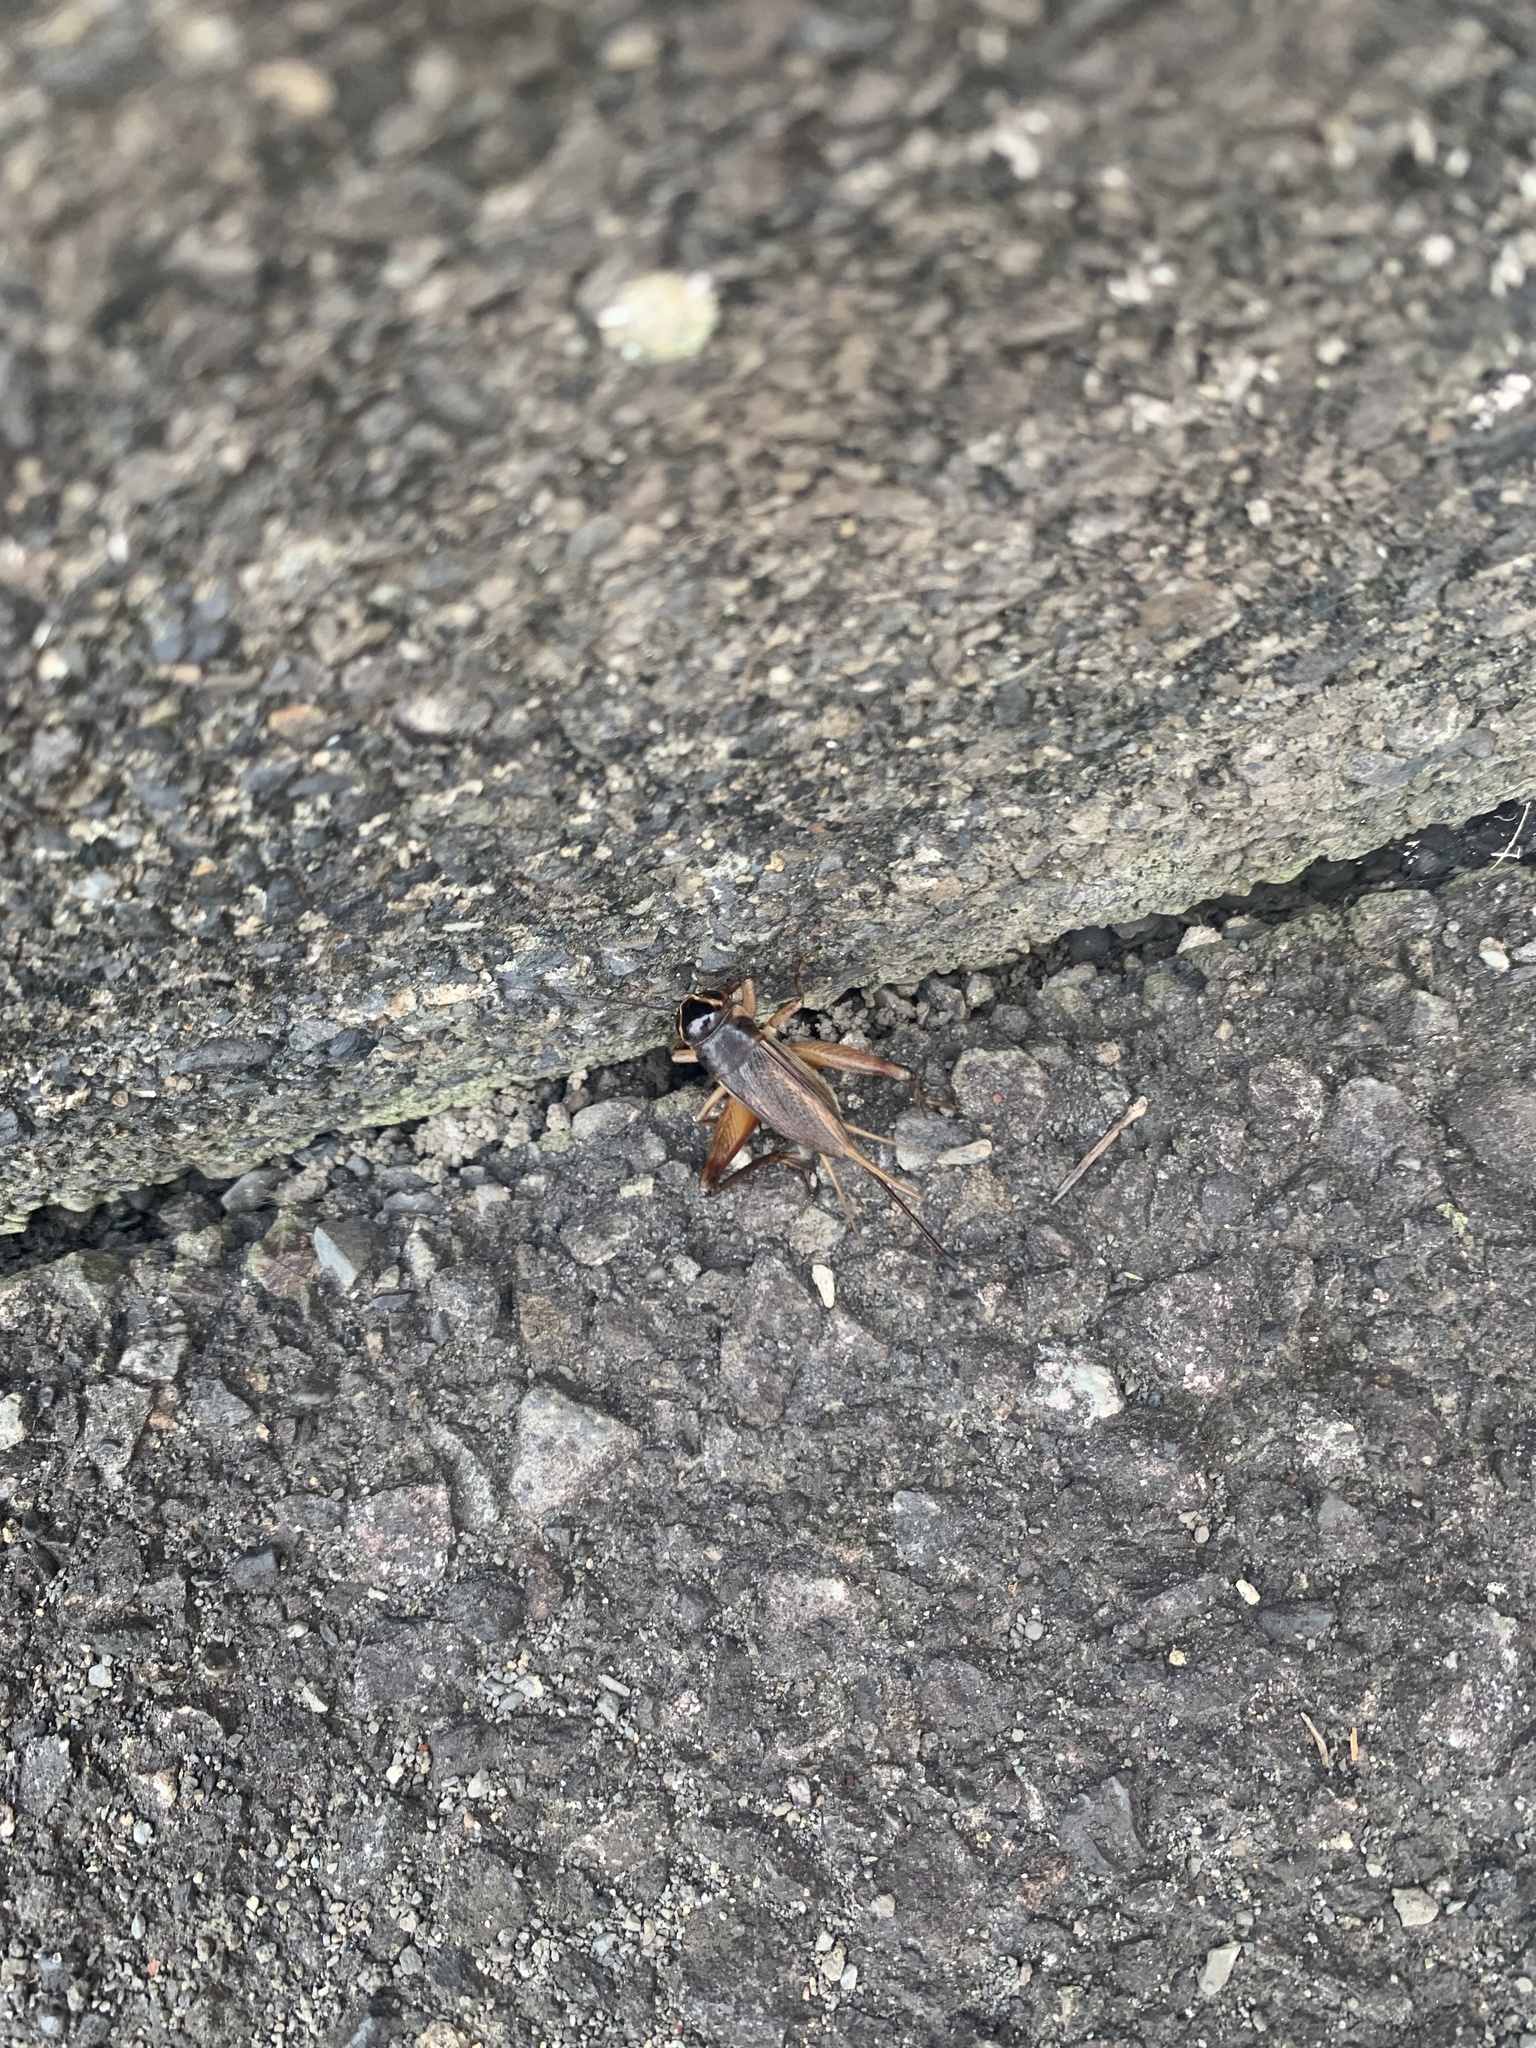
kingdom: Animalia
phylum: Arthropoda
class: Insecta
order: Orthoptera
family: Gryllidae
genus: Teleogryllus
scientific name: Teleogryllus emma
